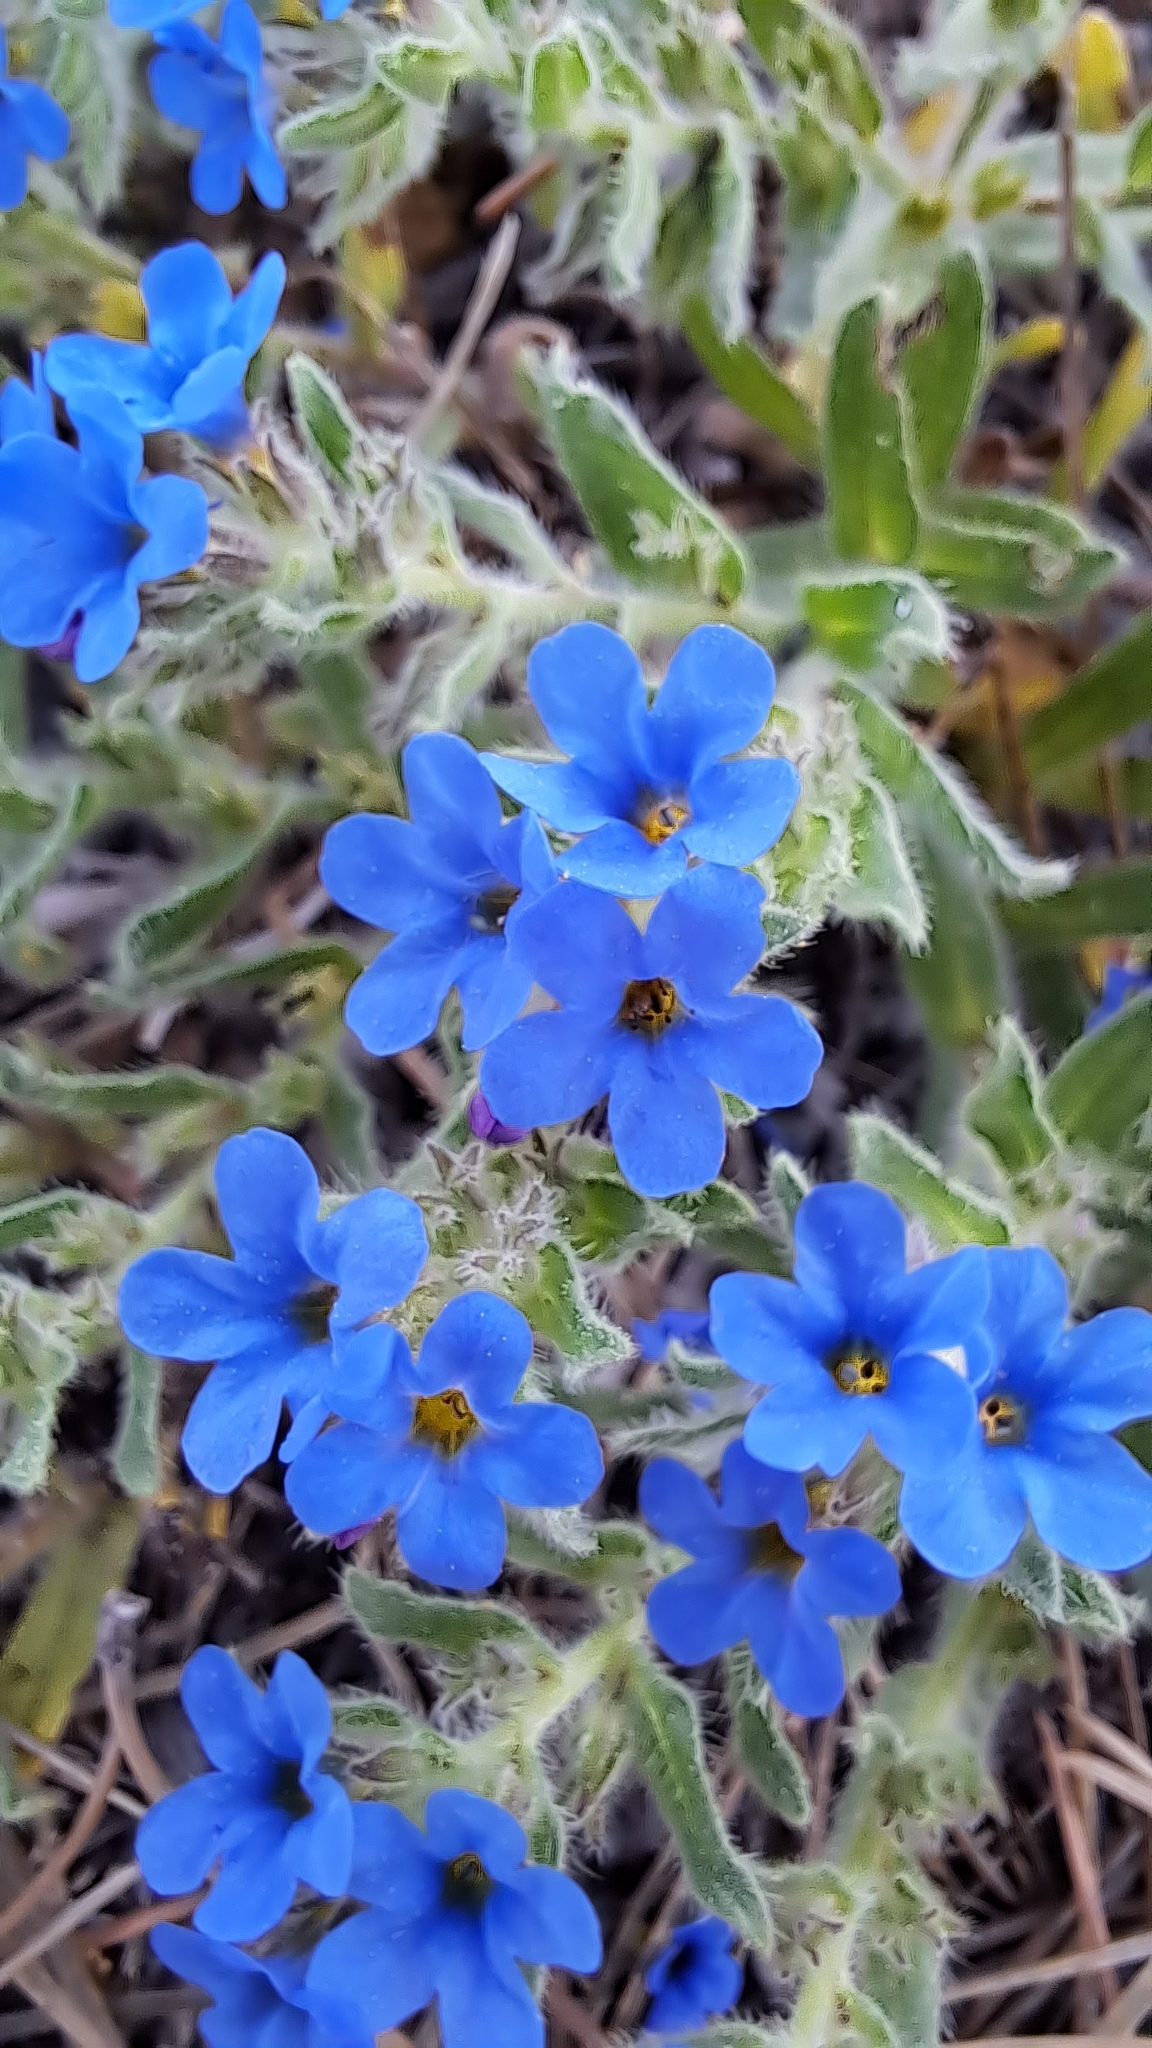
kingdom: Plantae
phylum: Tracheophyta
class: Magnoliopsida
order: Boraginales
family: Boraginaceae
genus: Alkanna
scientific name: Alkanna tinctoria
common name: Dyer's-alkanet
